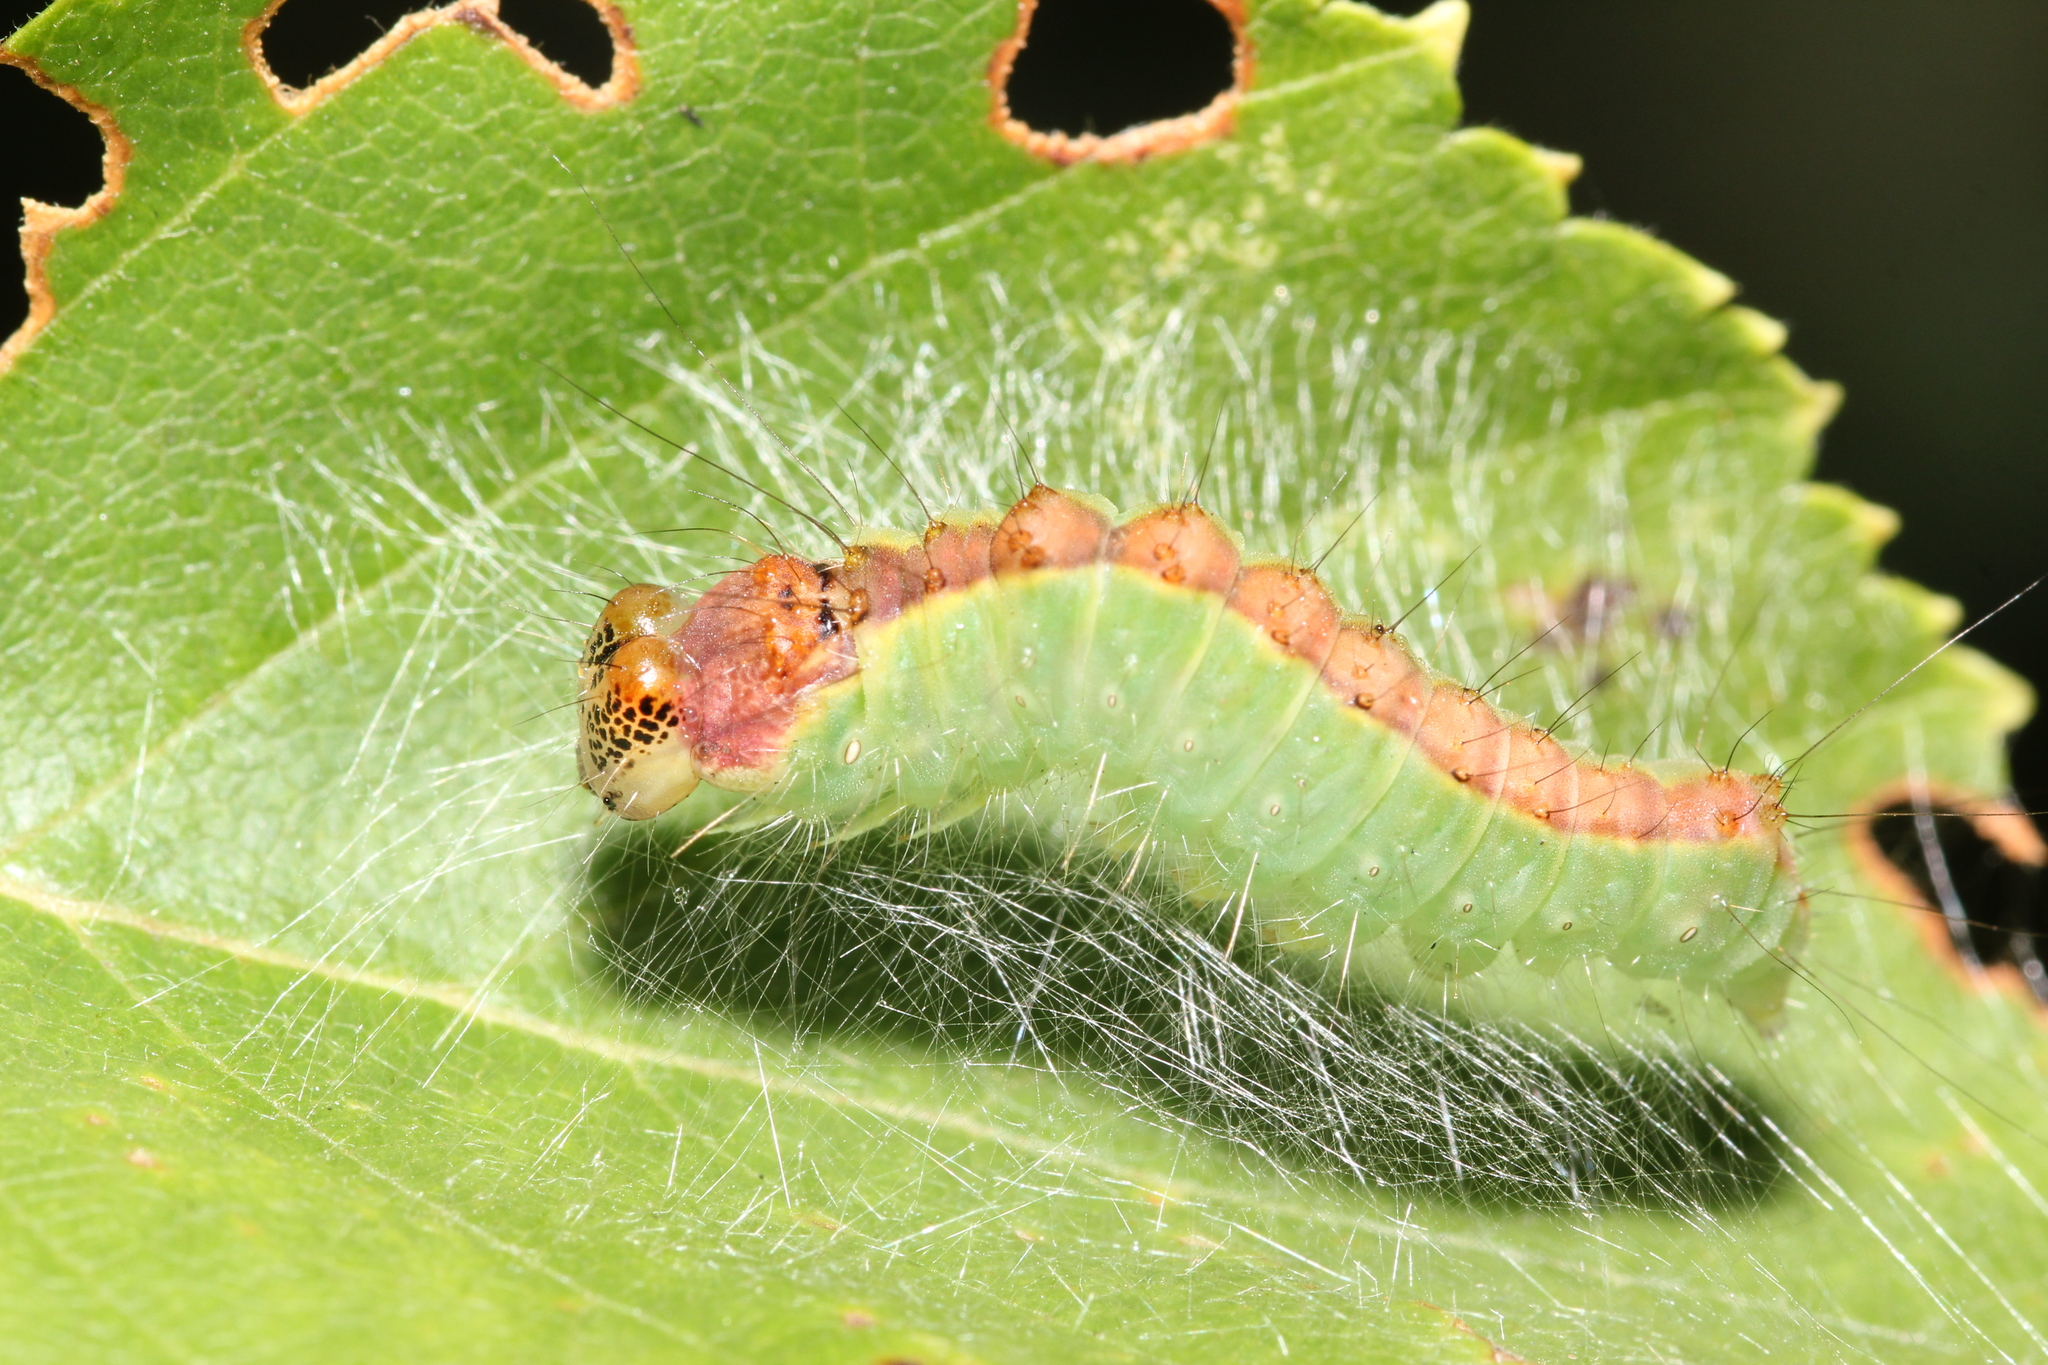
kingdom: Animalia
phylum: Arthropoda
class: Insecta
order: Lepidoptera
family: Noctuidae
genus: Acronicta
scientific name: Acronicta superans
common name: Splendid dagger
